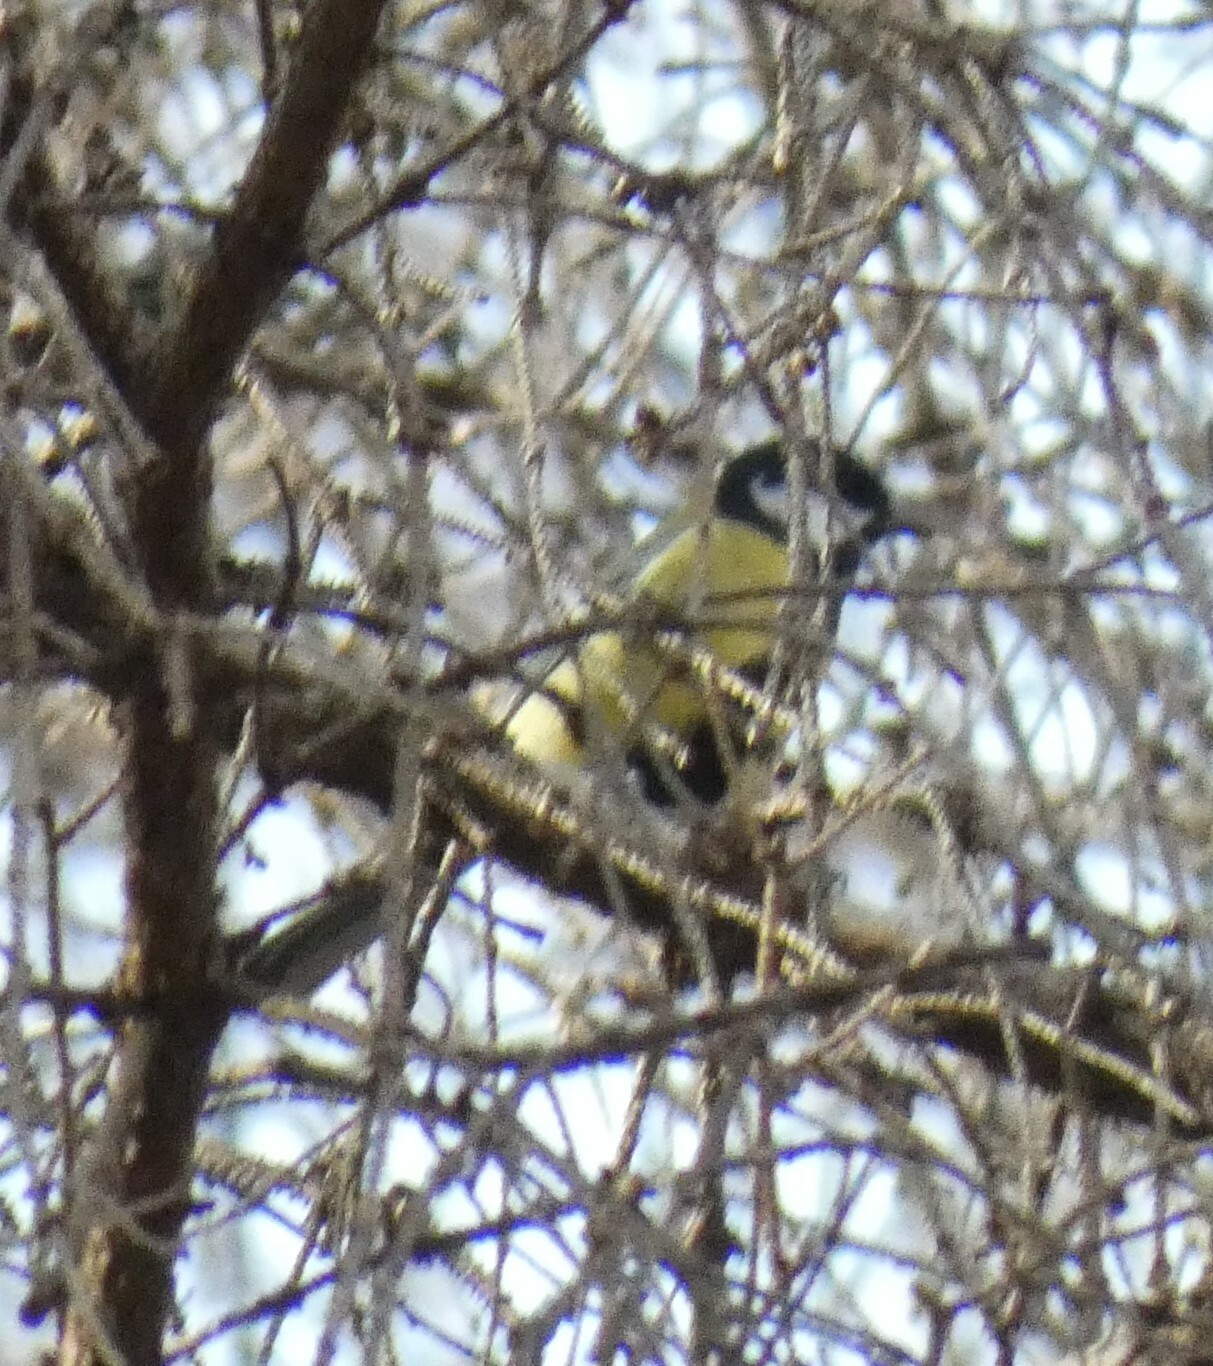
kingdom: Animalia
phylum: Chordata
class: Aves
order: Passeriformes
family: Paridae
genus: Parus
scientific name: Parus major
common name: Great tit
